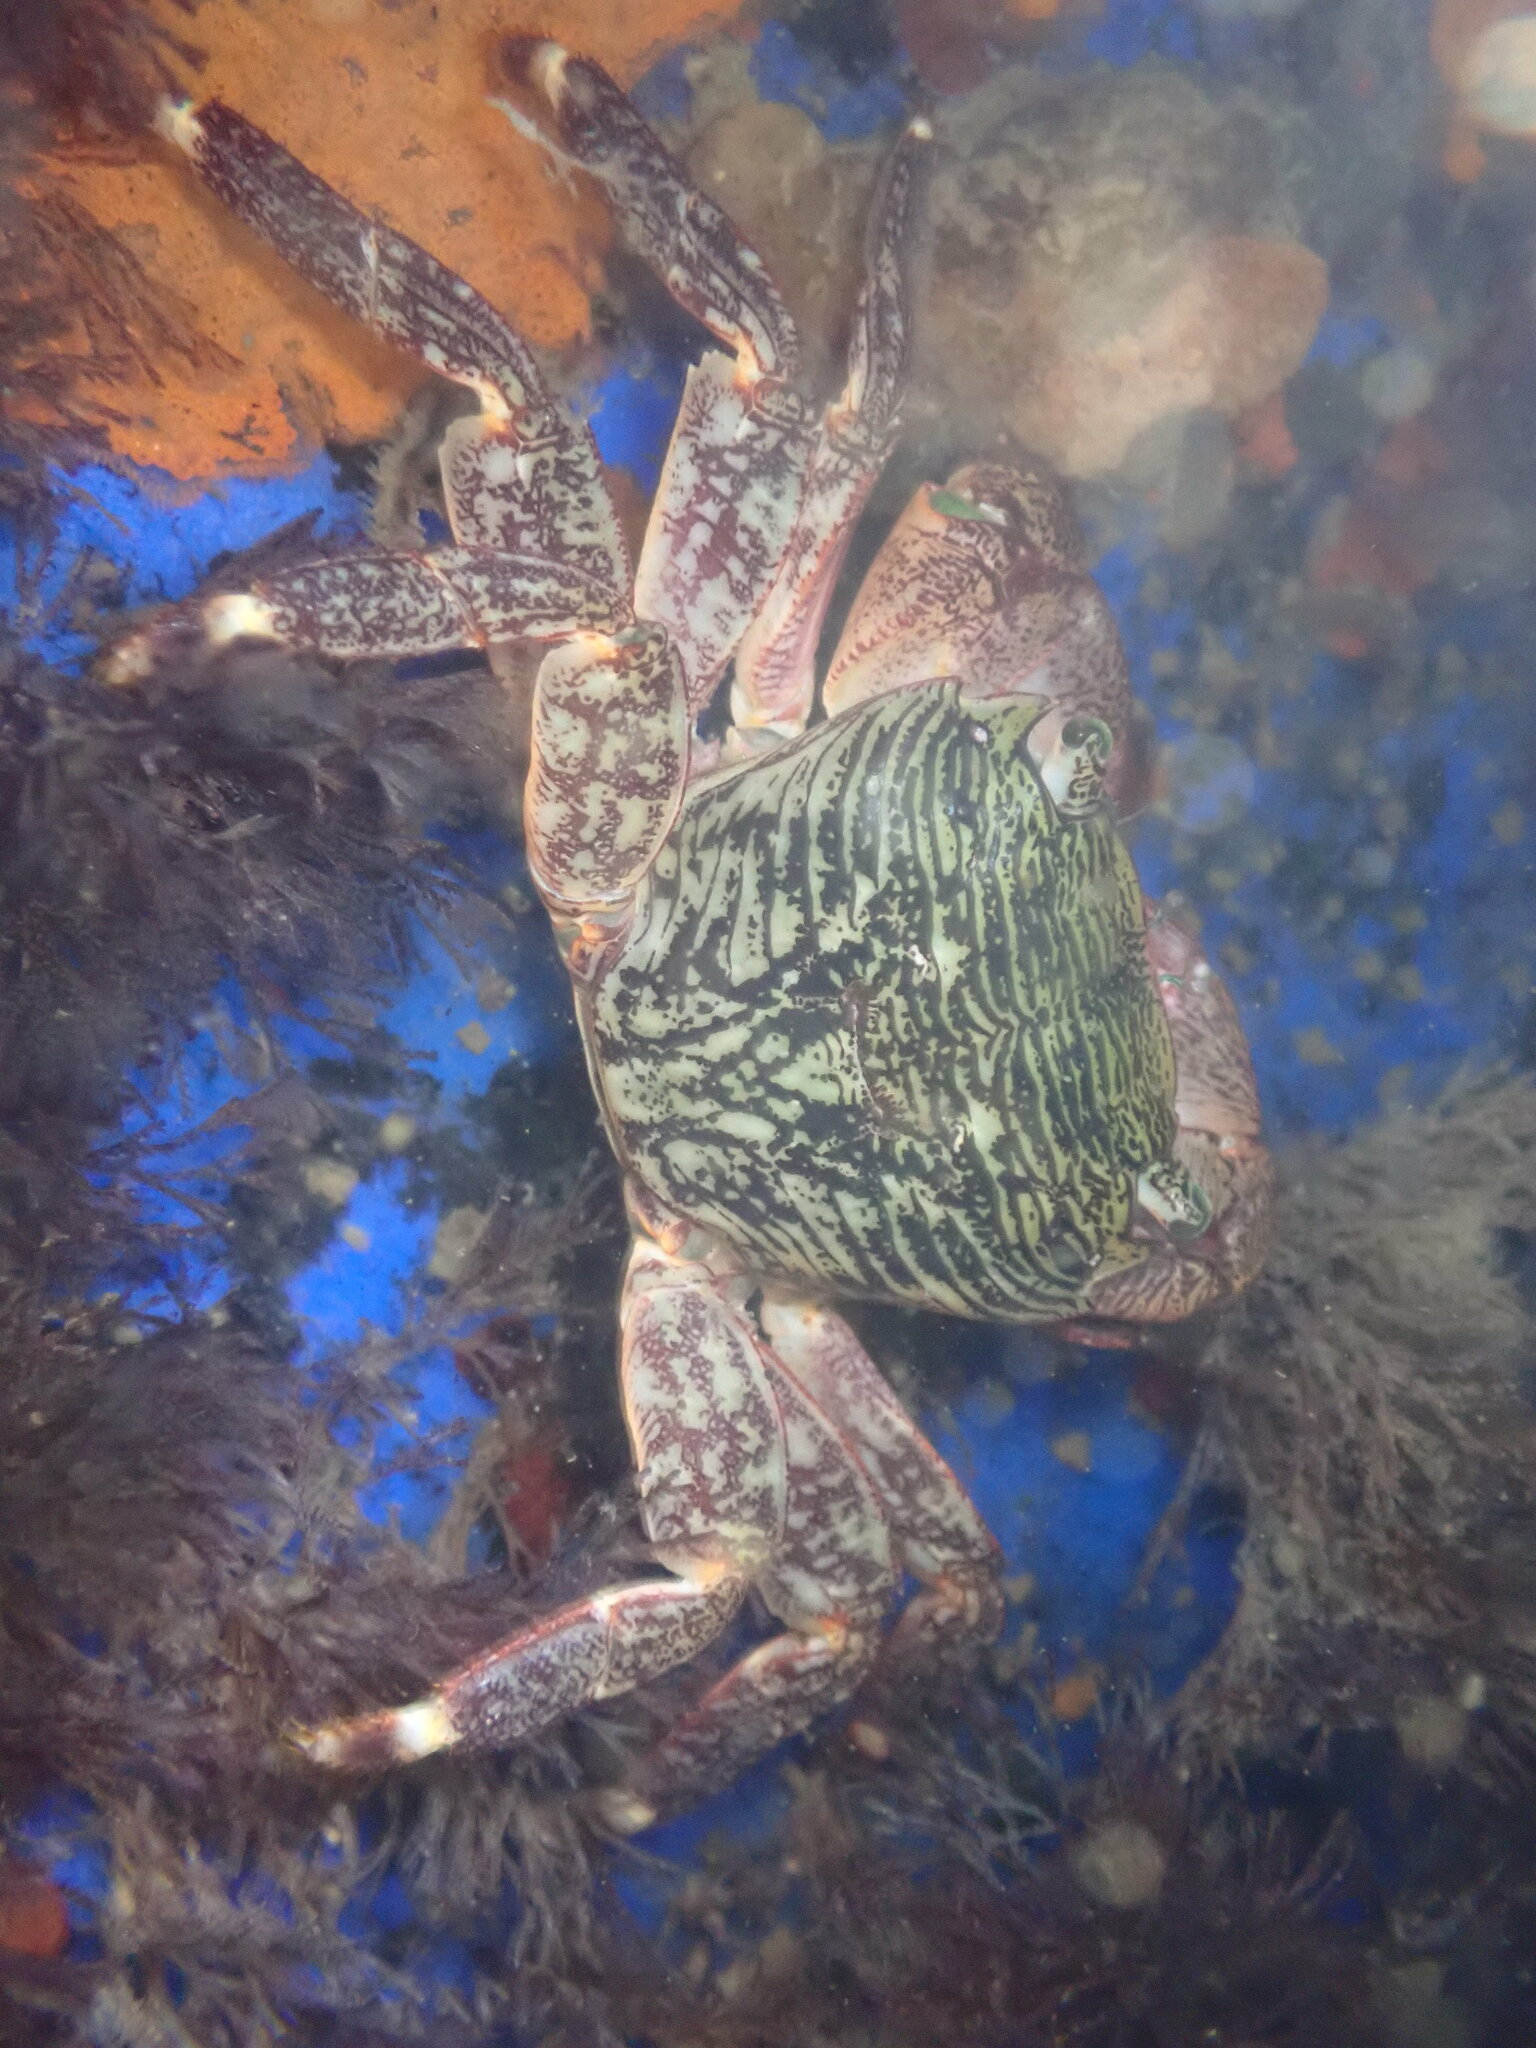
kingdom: Animalia
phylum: Arthropoda
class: Malacostraca
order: Decapoda
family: Grapsidae
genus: Pachygrapsus
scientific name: Pachygrapsus crassipes
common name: Striped shore crab
